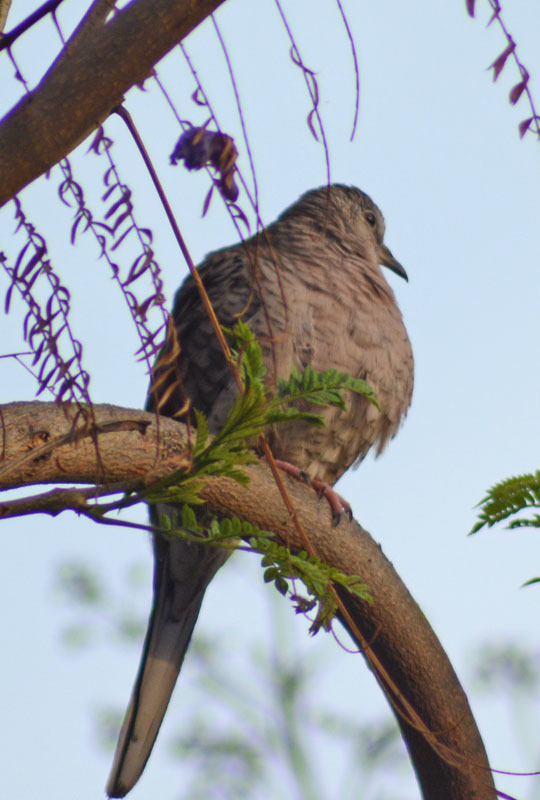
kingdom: Animalia
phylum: Chordata
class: Aves
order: Columbiformes
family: Columbidae
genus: Columbina
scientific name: Columbina inca
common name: Inca dove
